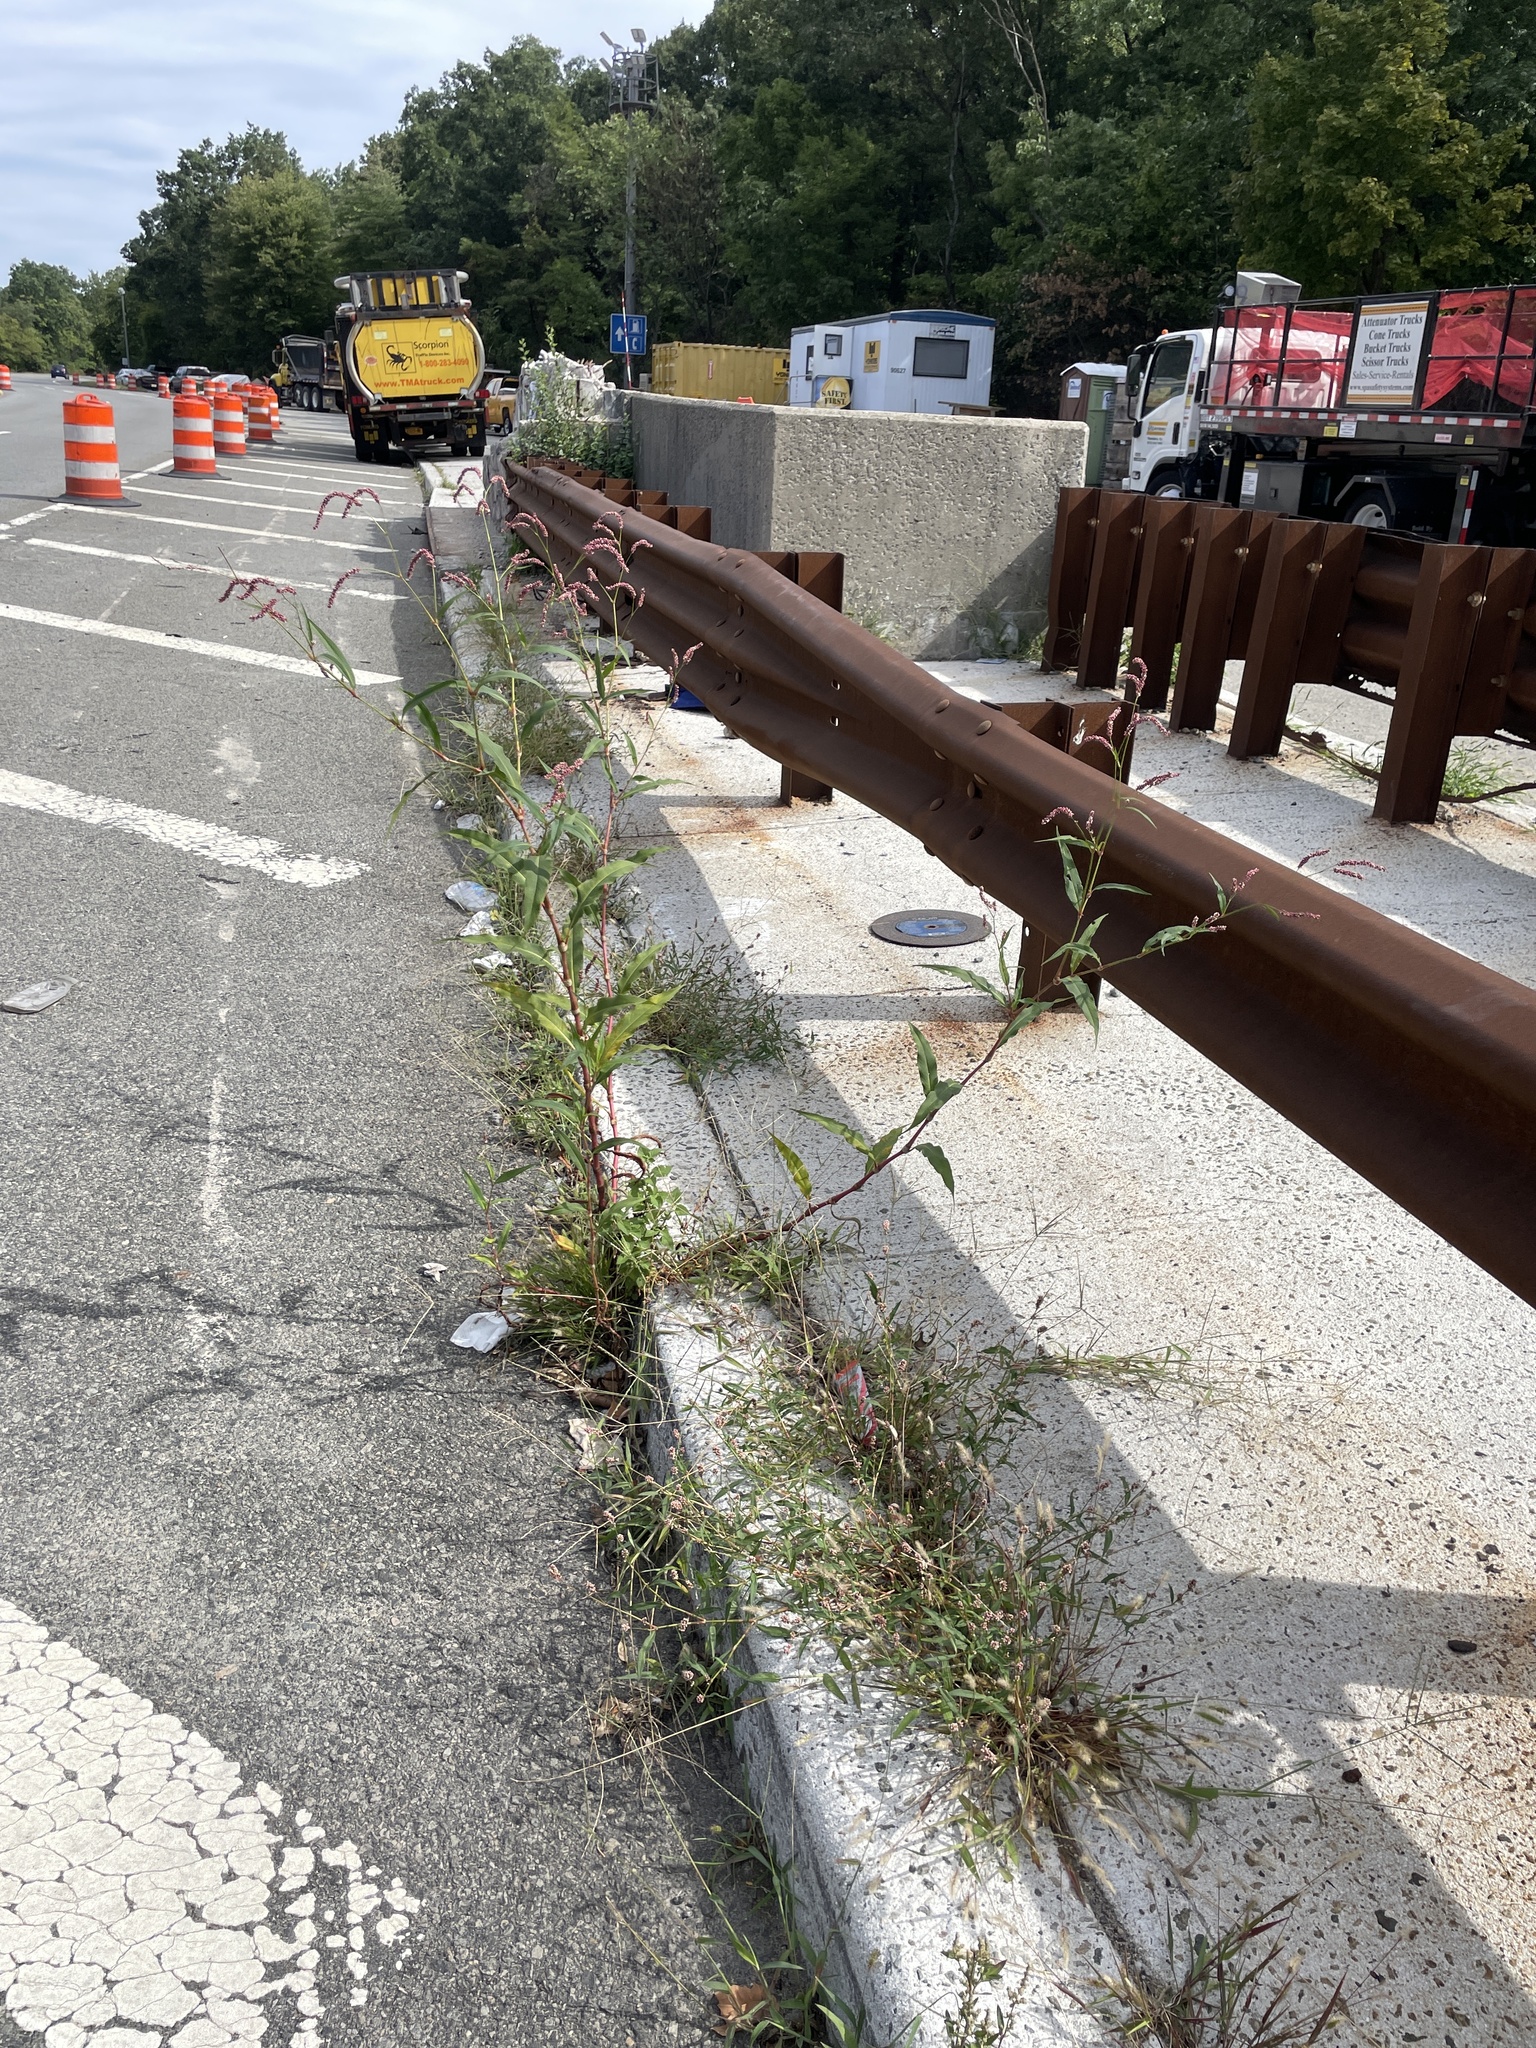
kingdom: Plantae
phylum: Tracheophyta
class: Magnoliopsida
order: Caryophyllales
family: Polygonaceae
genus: Persicaria
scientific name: Persicaria extremiorientalis
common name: Far-eastern smartweed
